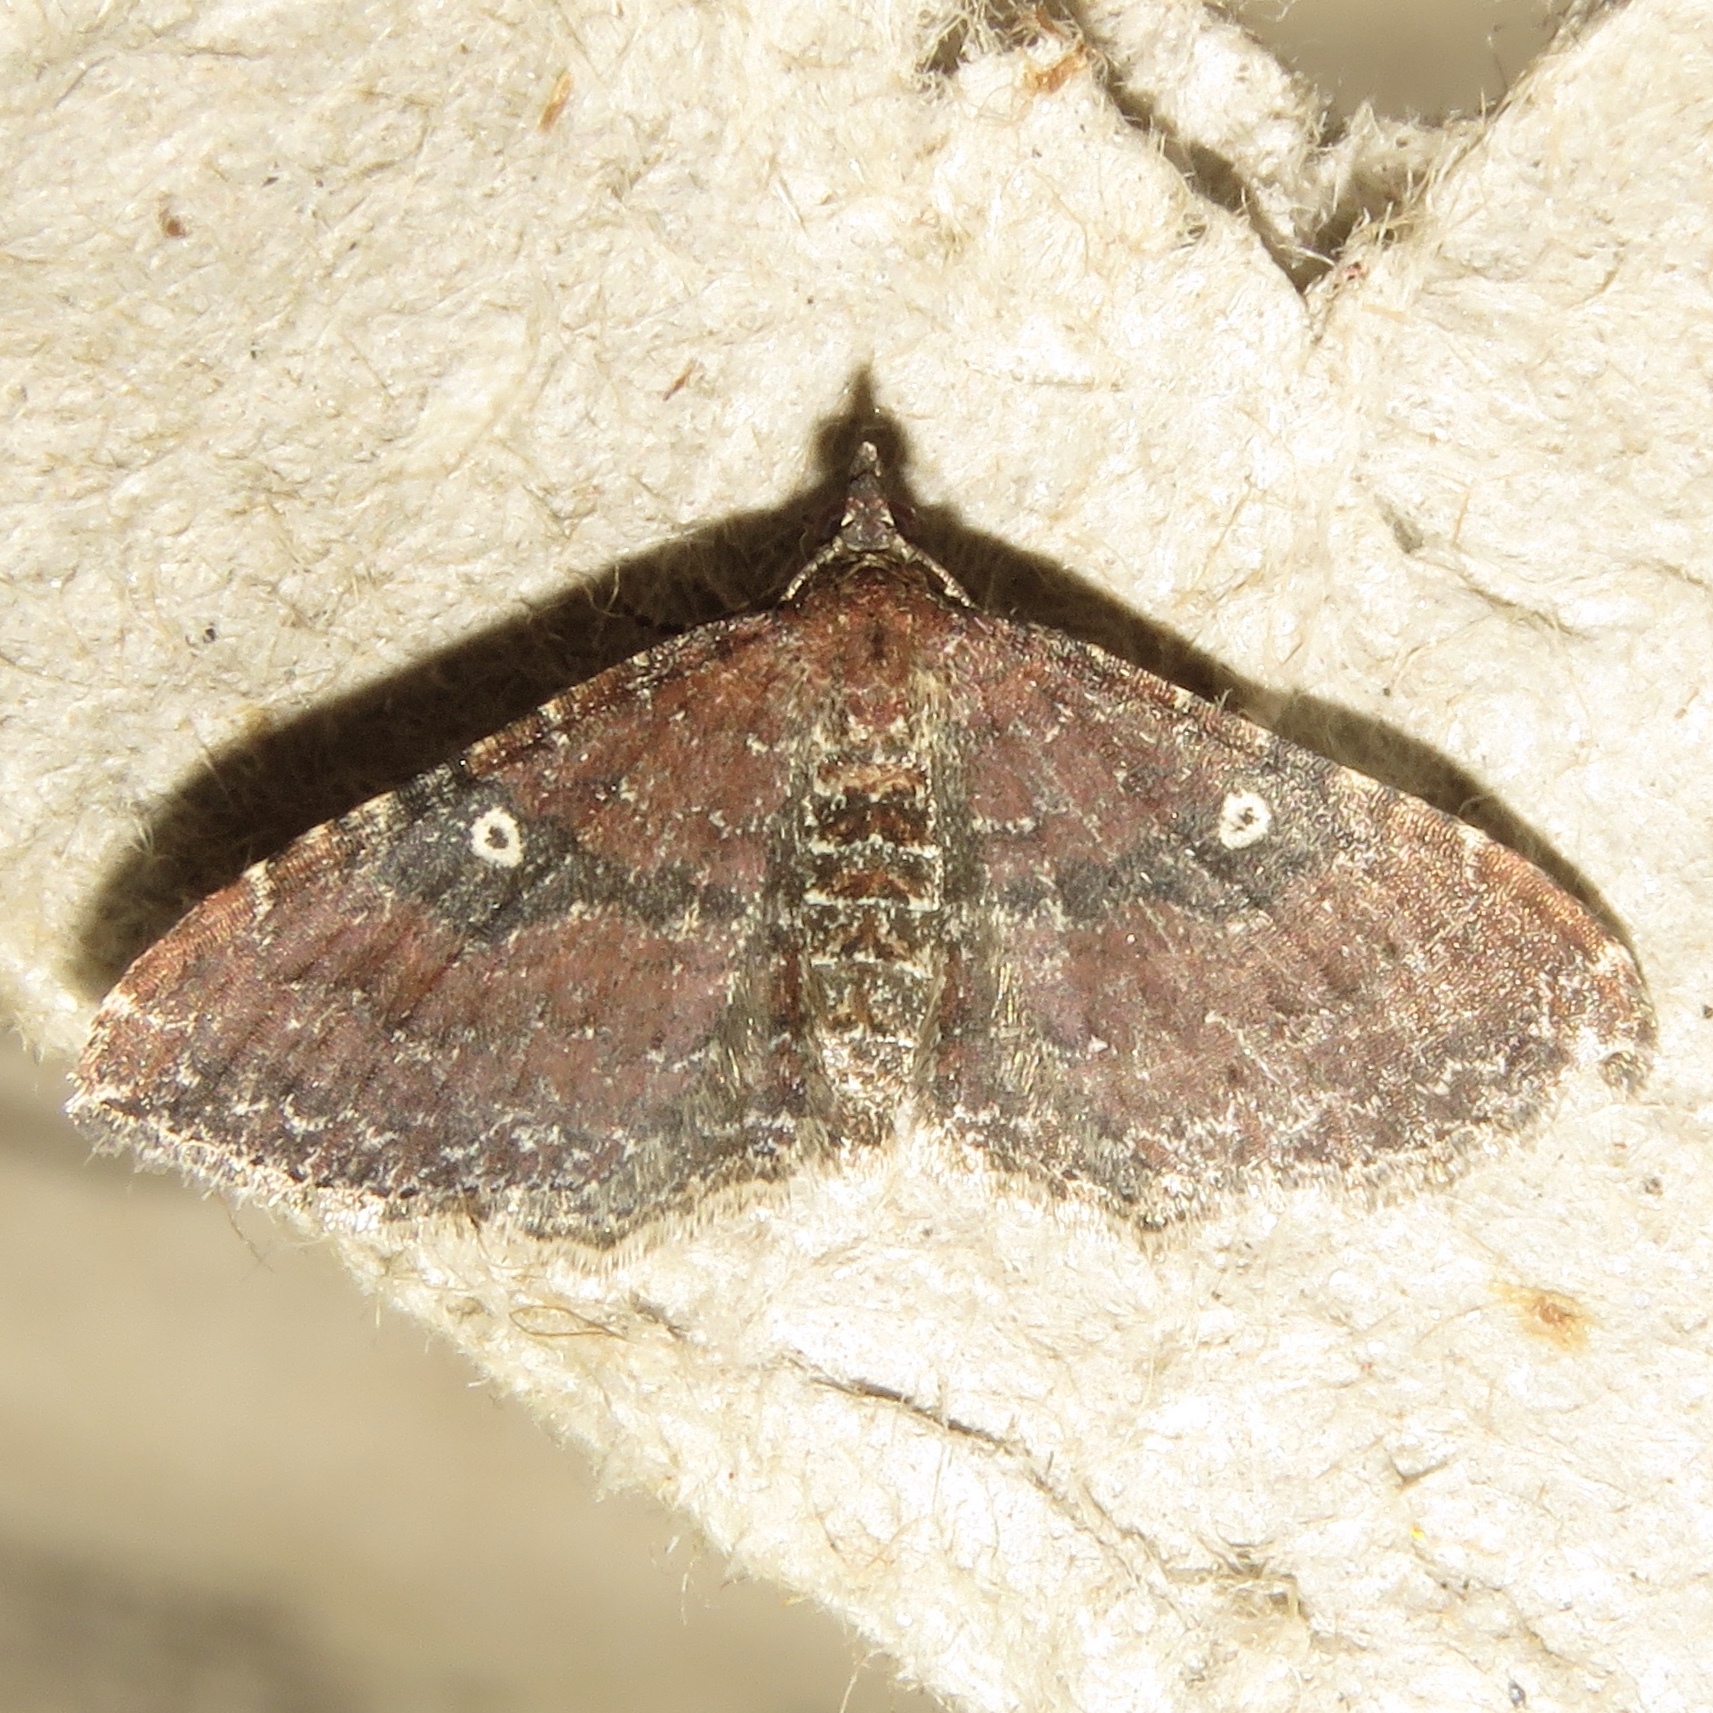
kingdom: Animalia
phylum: Arthropoda
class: Insecta
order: Lepidoptera
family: Geometridae
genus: Orthonama
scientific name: Orthonama obstipata
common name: The gem
